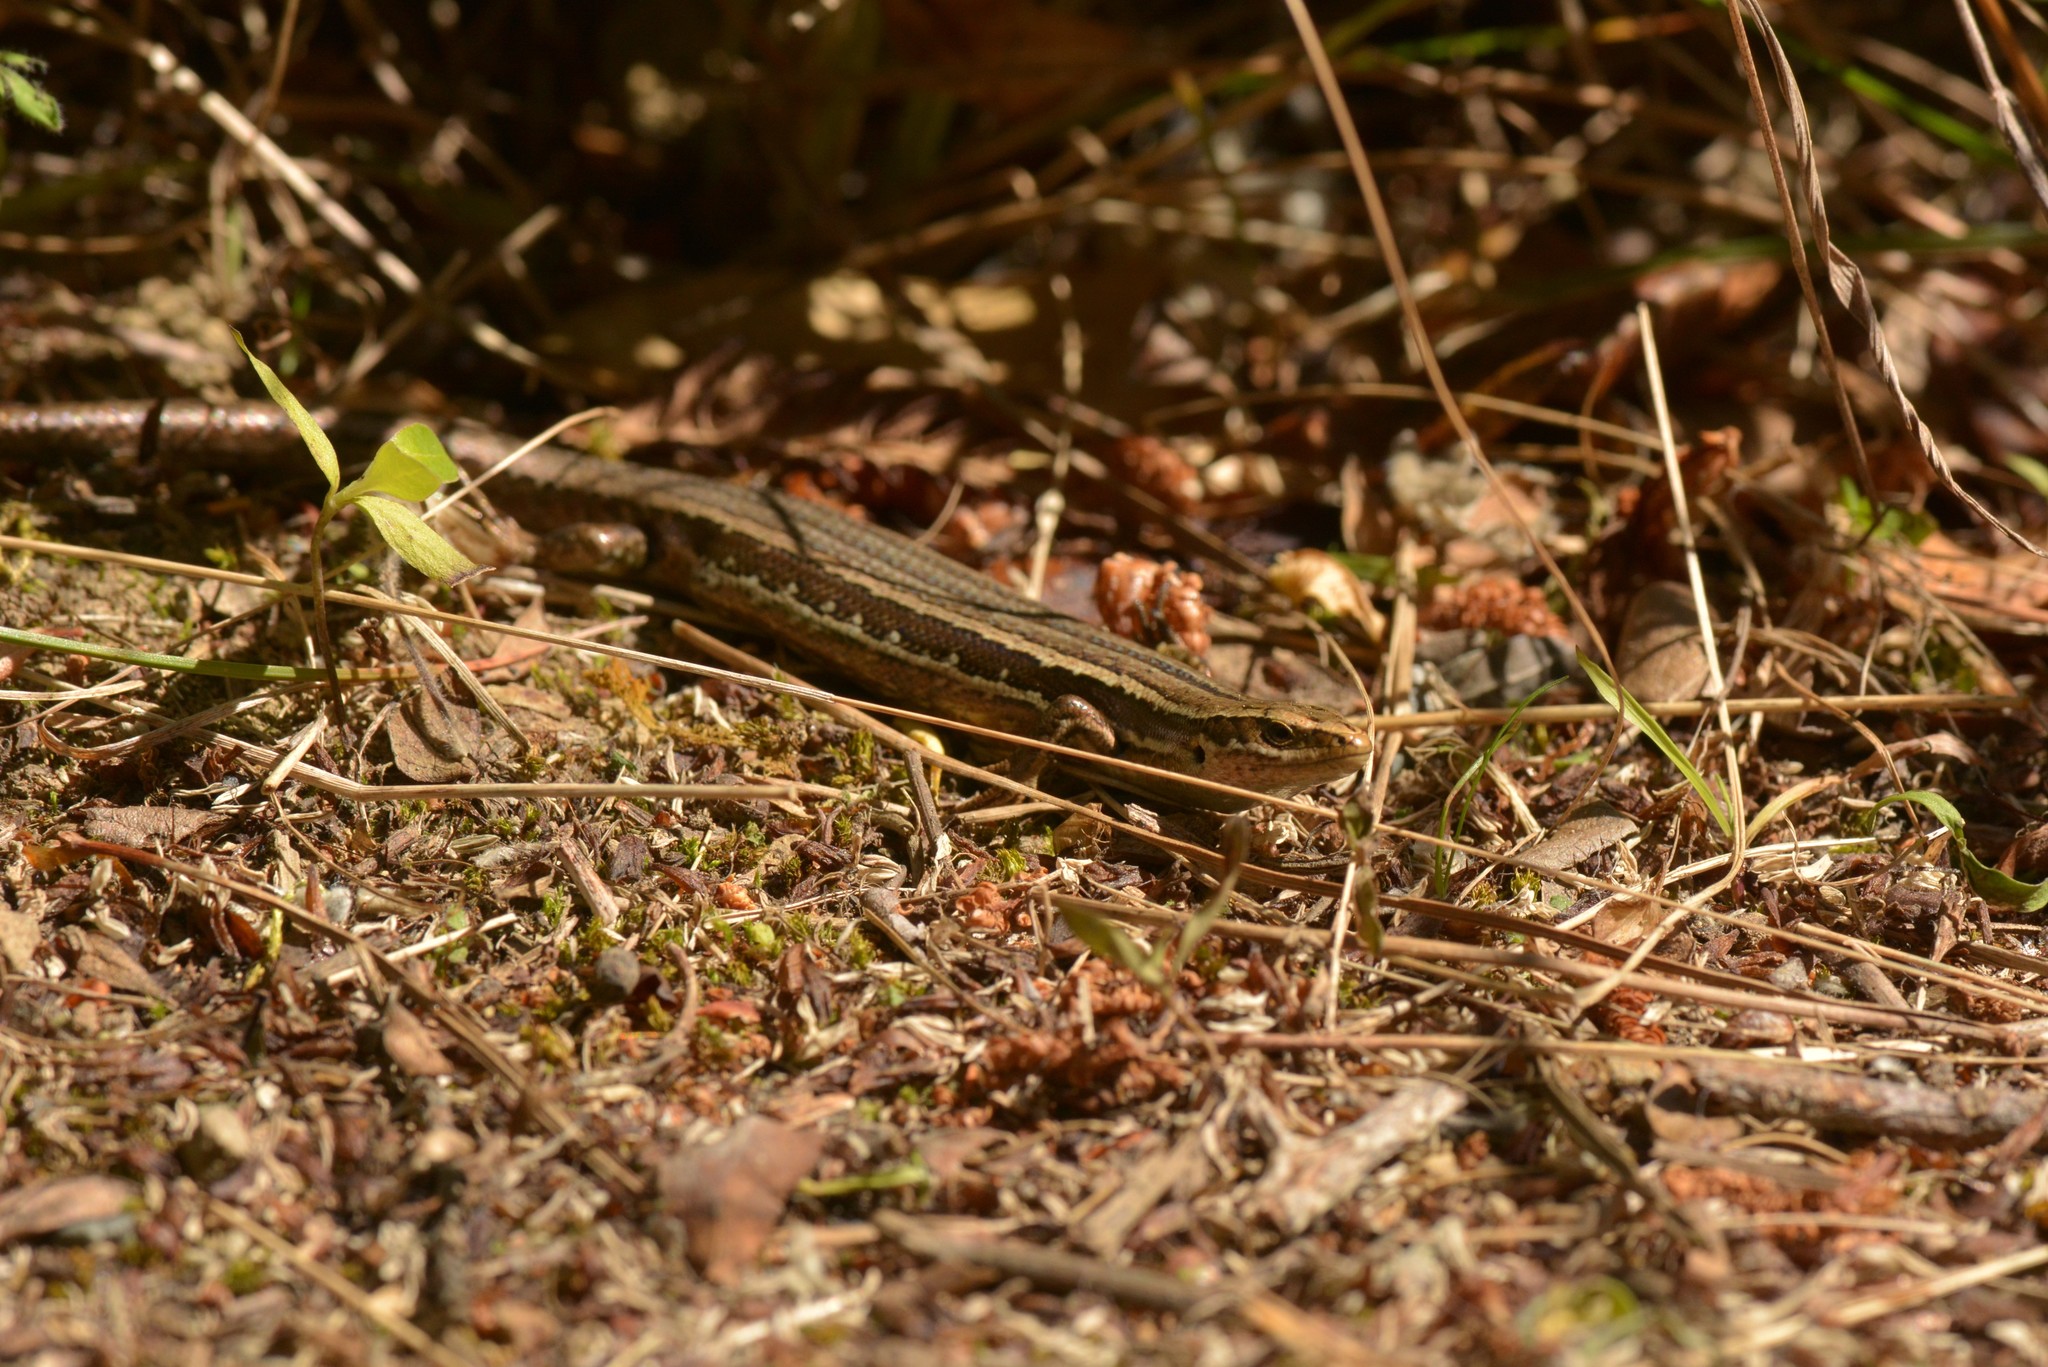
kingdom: Animalia
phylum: Chordata
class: Squamata
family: Scincidae
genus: Oligosoma
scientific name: Oligosoma polychroma
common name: Common new zealand skink
